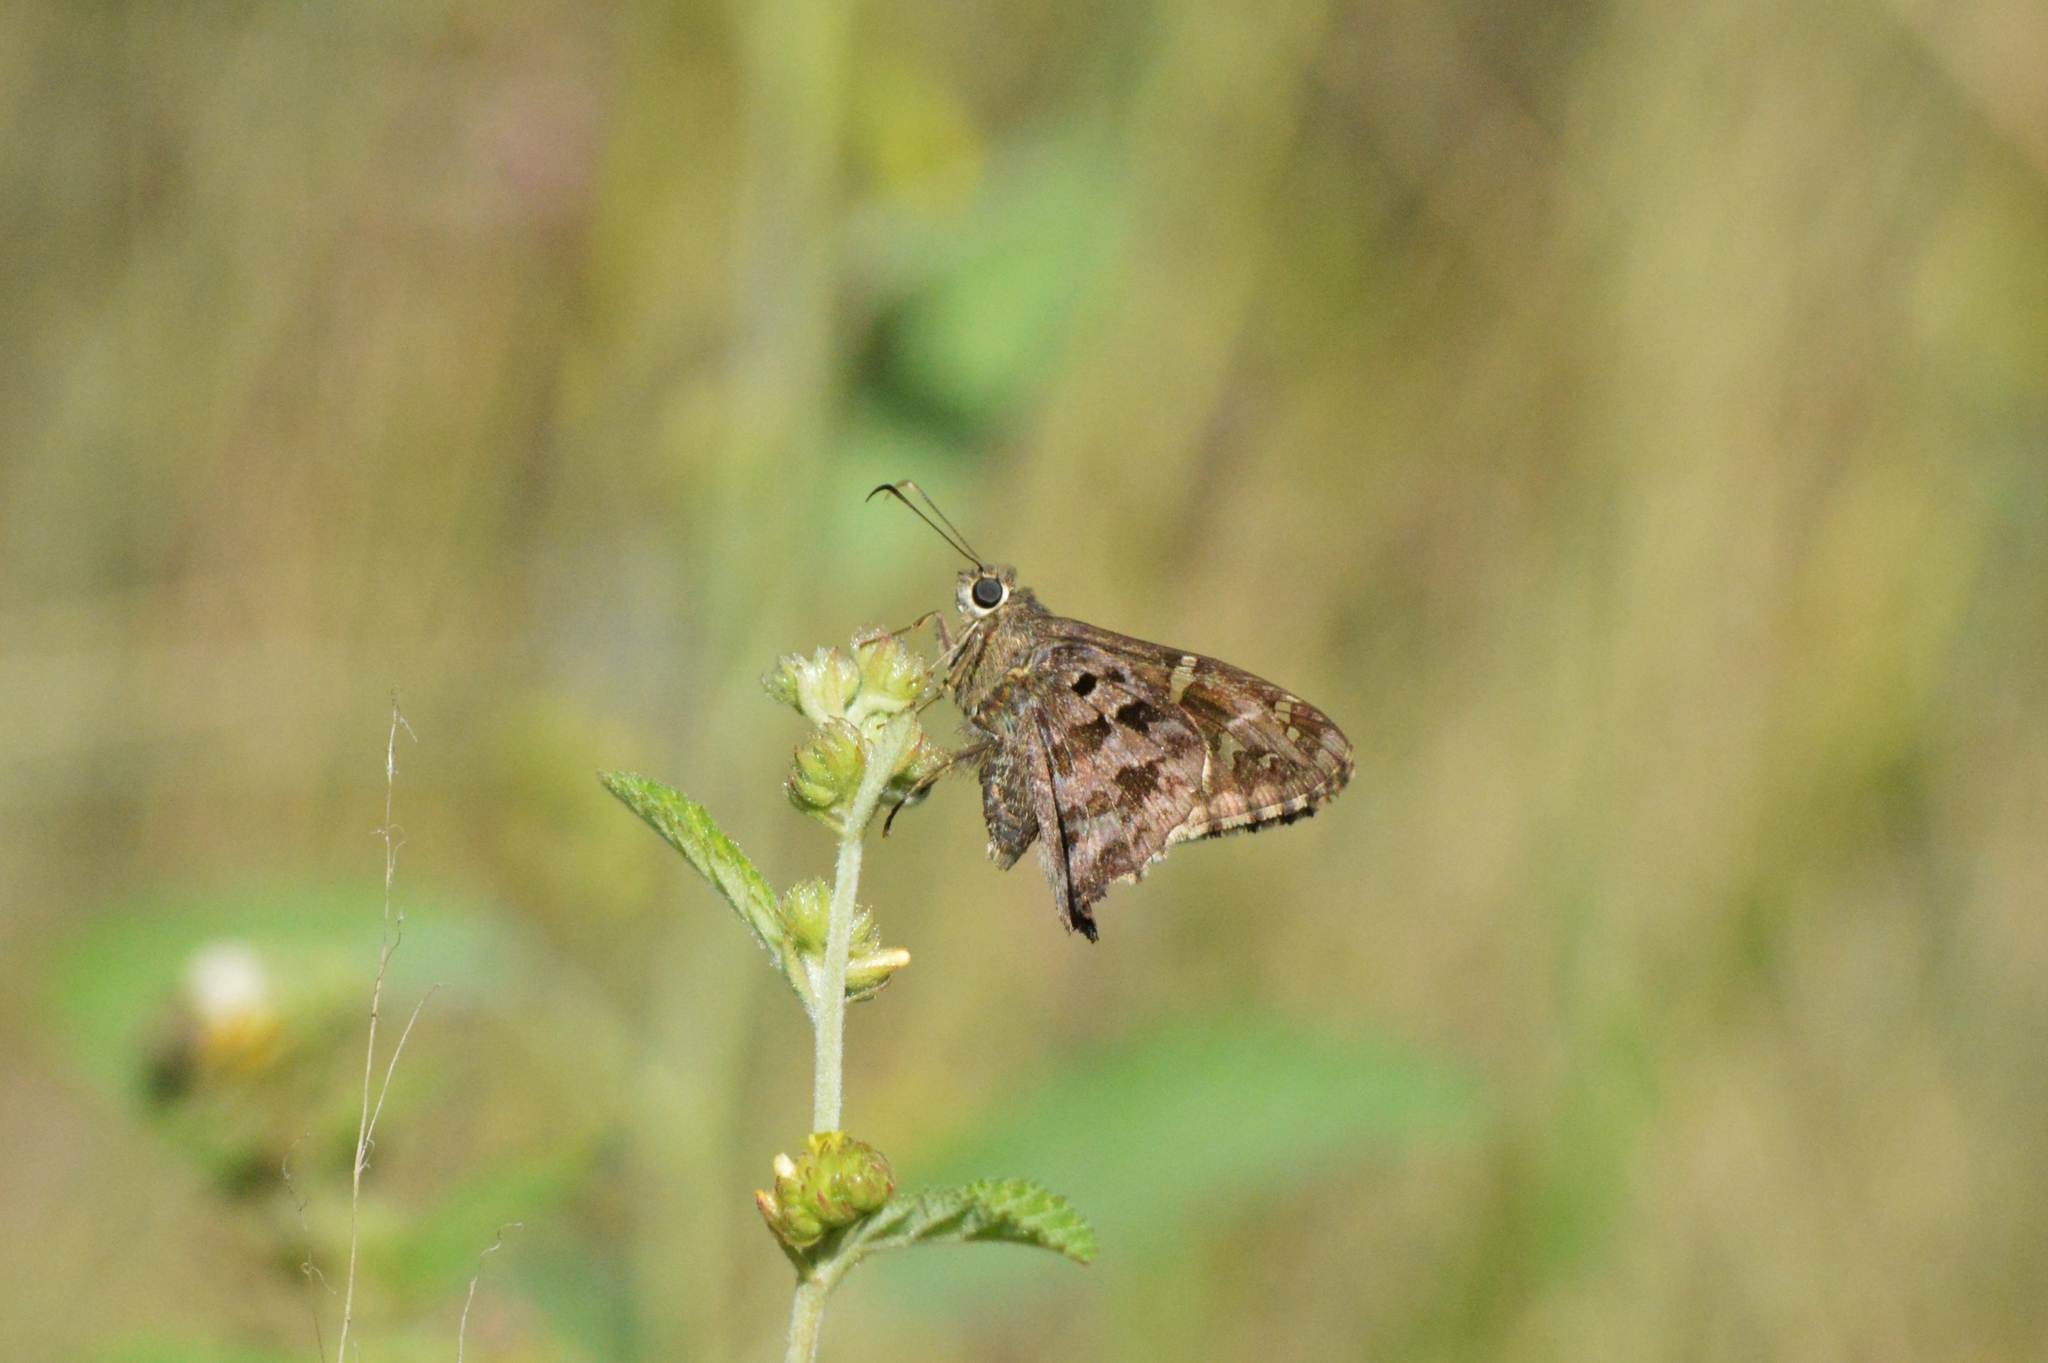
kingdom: Animalia
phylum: Arthropoda
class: Insecta
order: Lepidoptera
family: Hesperiidae
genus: Thorybes
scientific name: Thorybes
